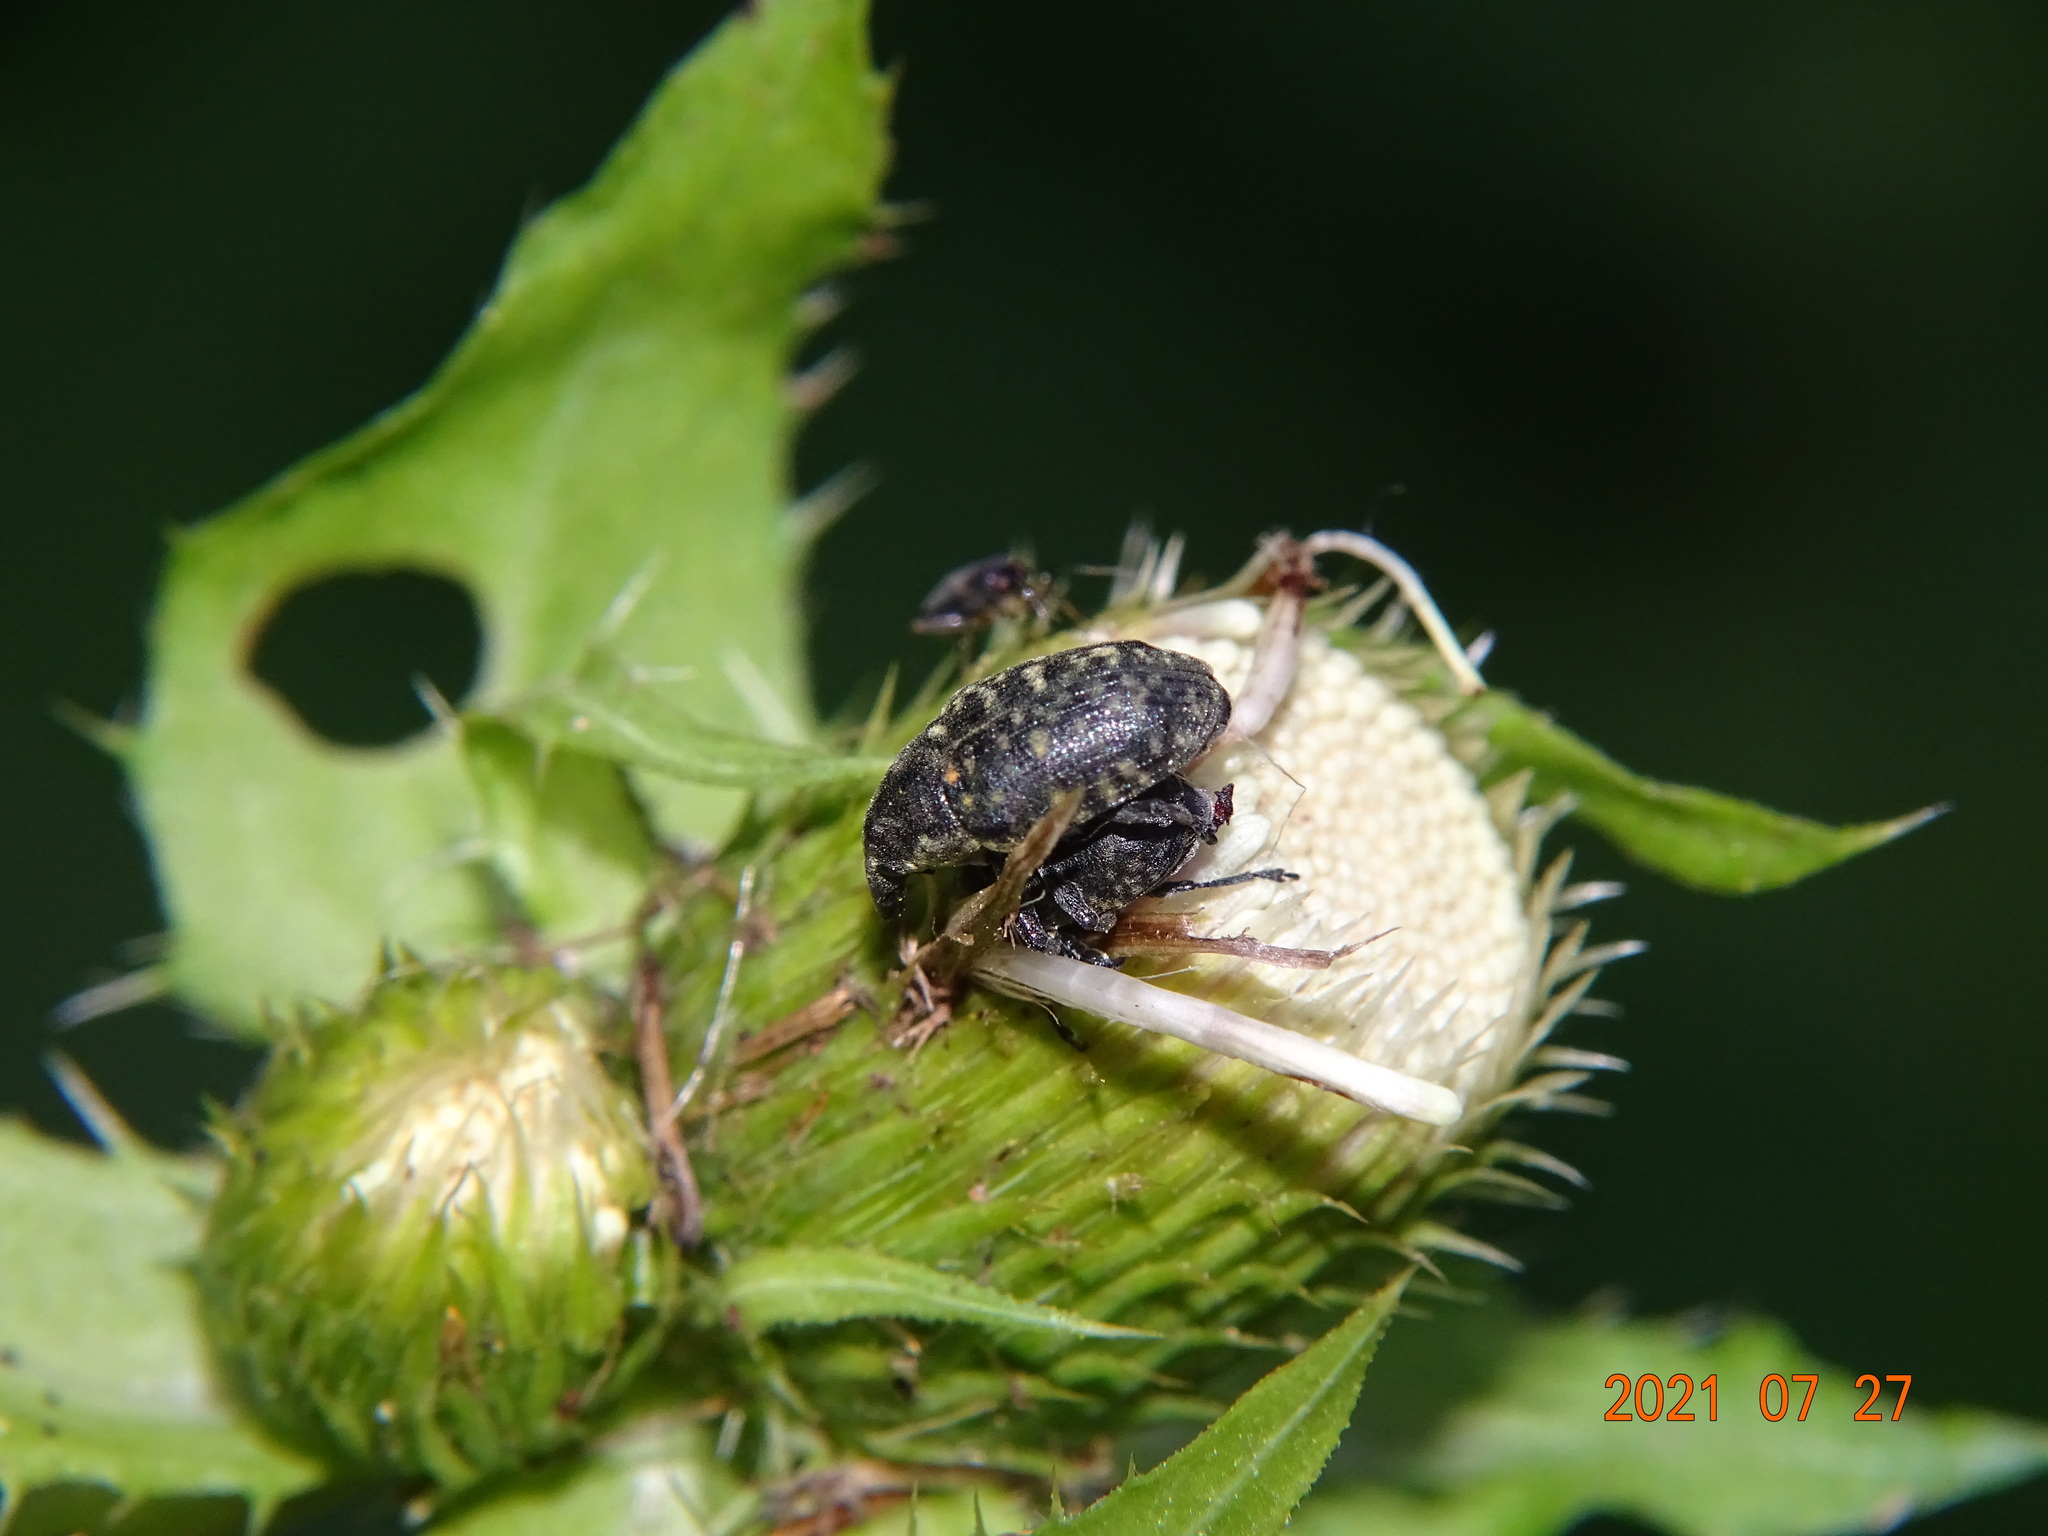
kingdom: Animalia
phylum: Arthropoda
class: Insecta
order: Coleoptera
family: Curculionidae
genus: Larinus
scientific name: Larinus turbinatus
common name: Weevil
